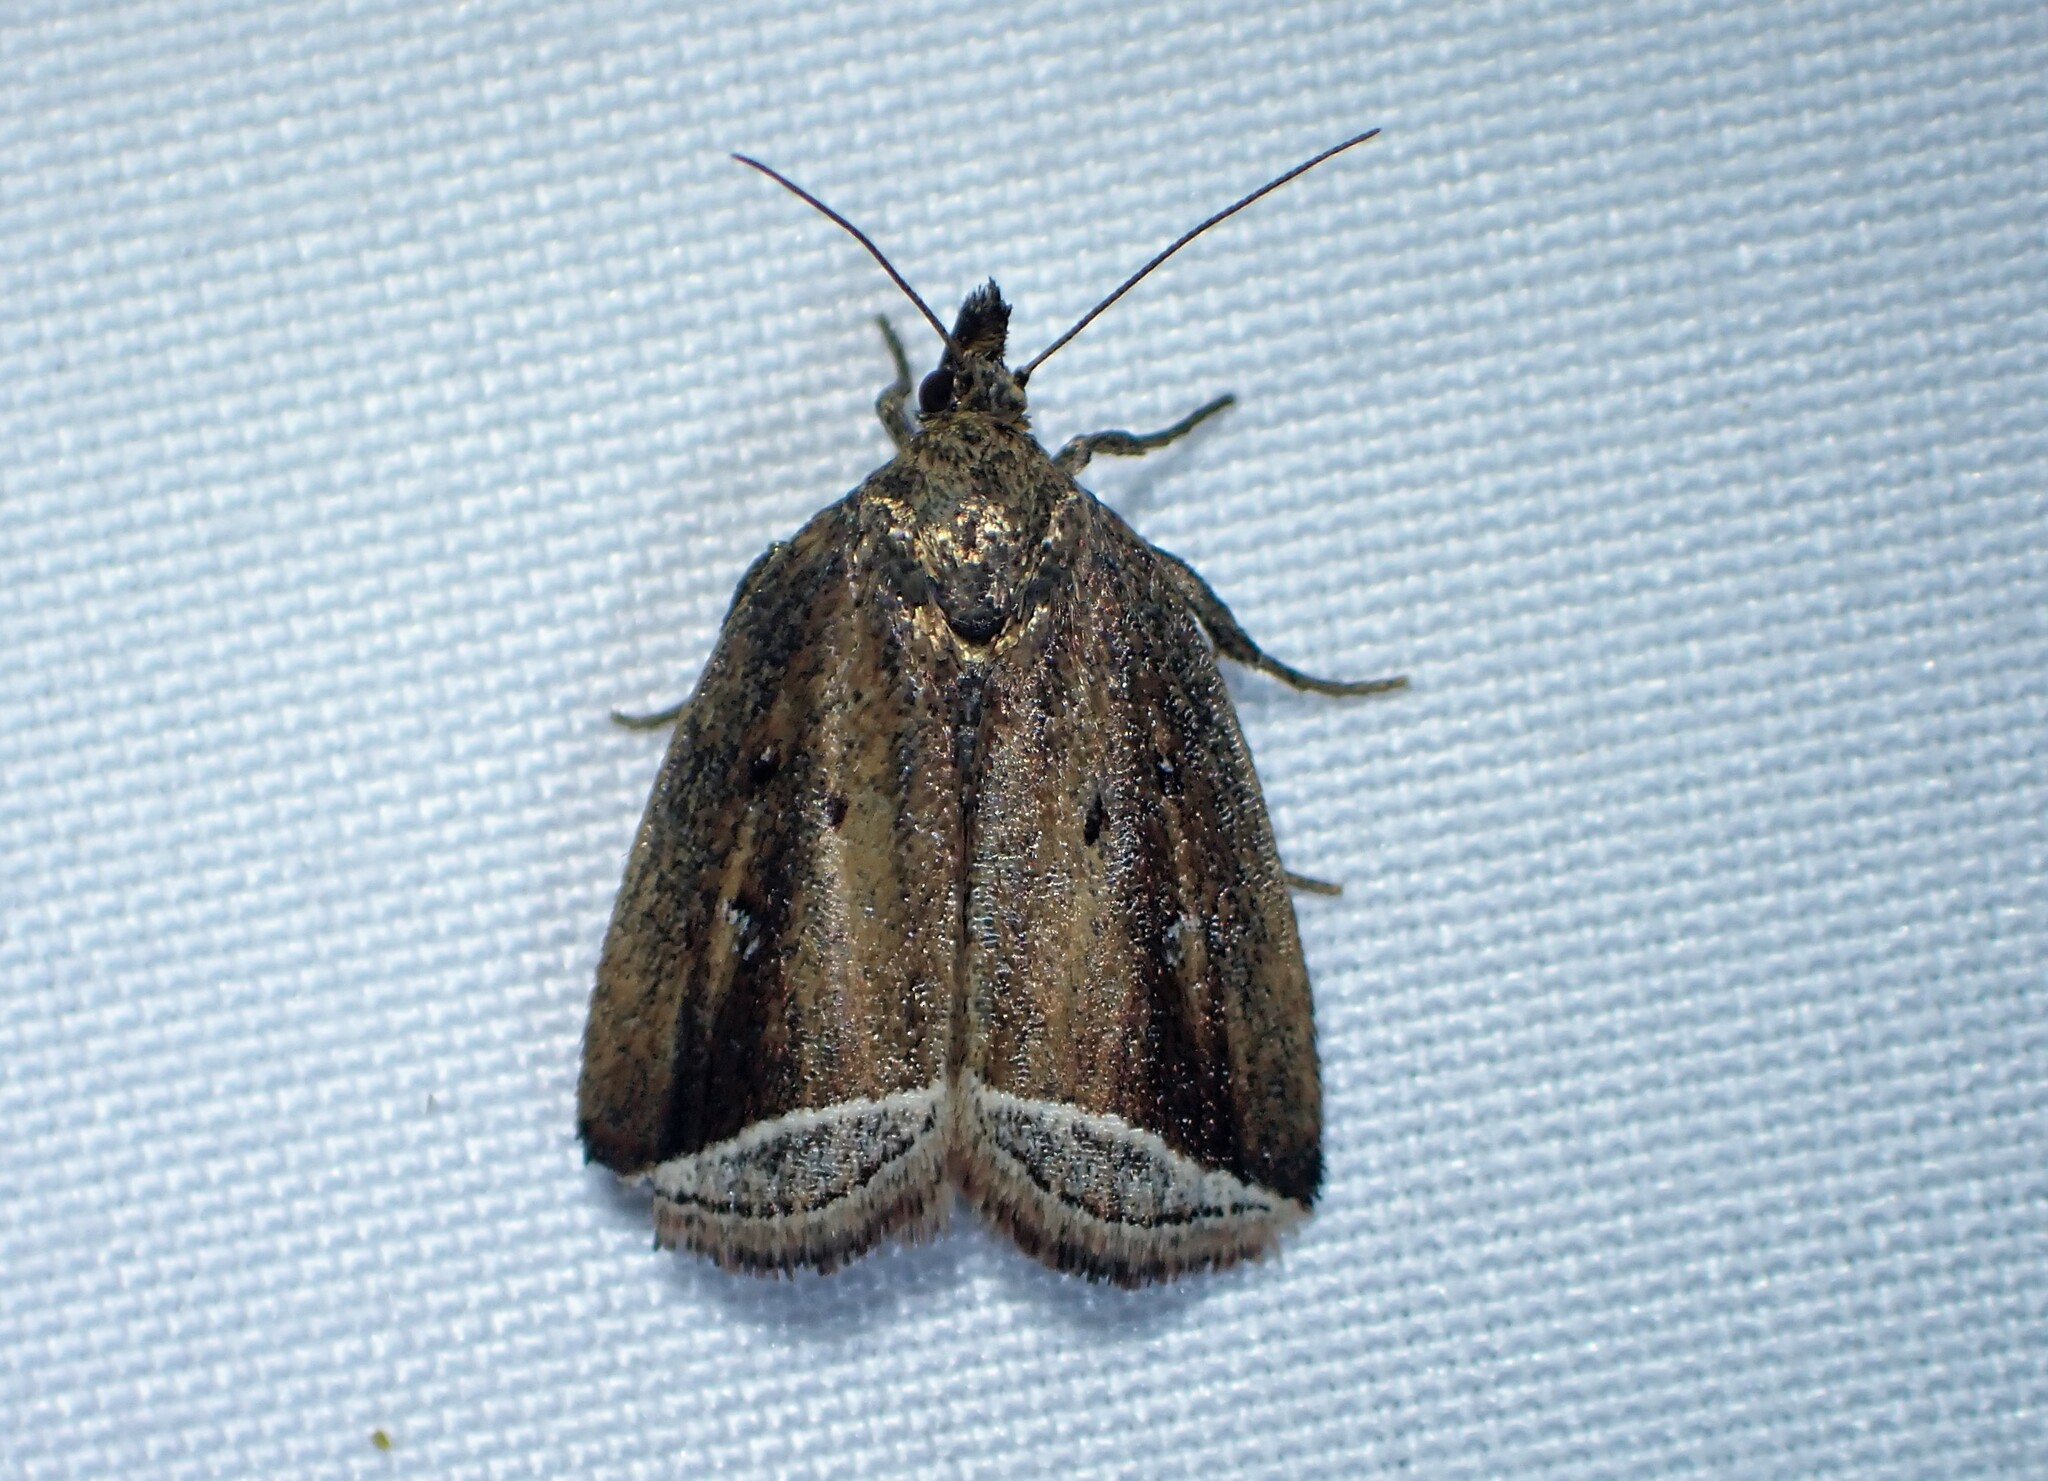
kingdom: Animalia
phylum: Arthropoda
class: Insecta
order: Lepidoptera
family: Erebidae
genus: Capis
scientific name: Capis curvata
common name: Curved halter moth
